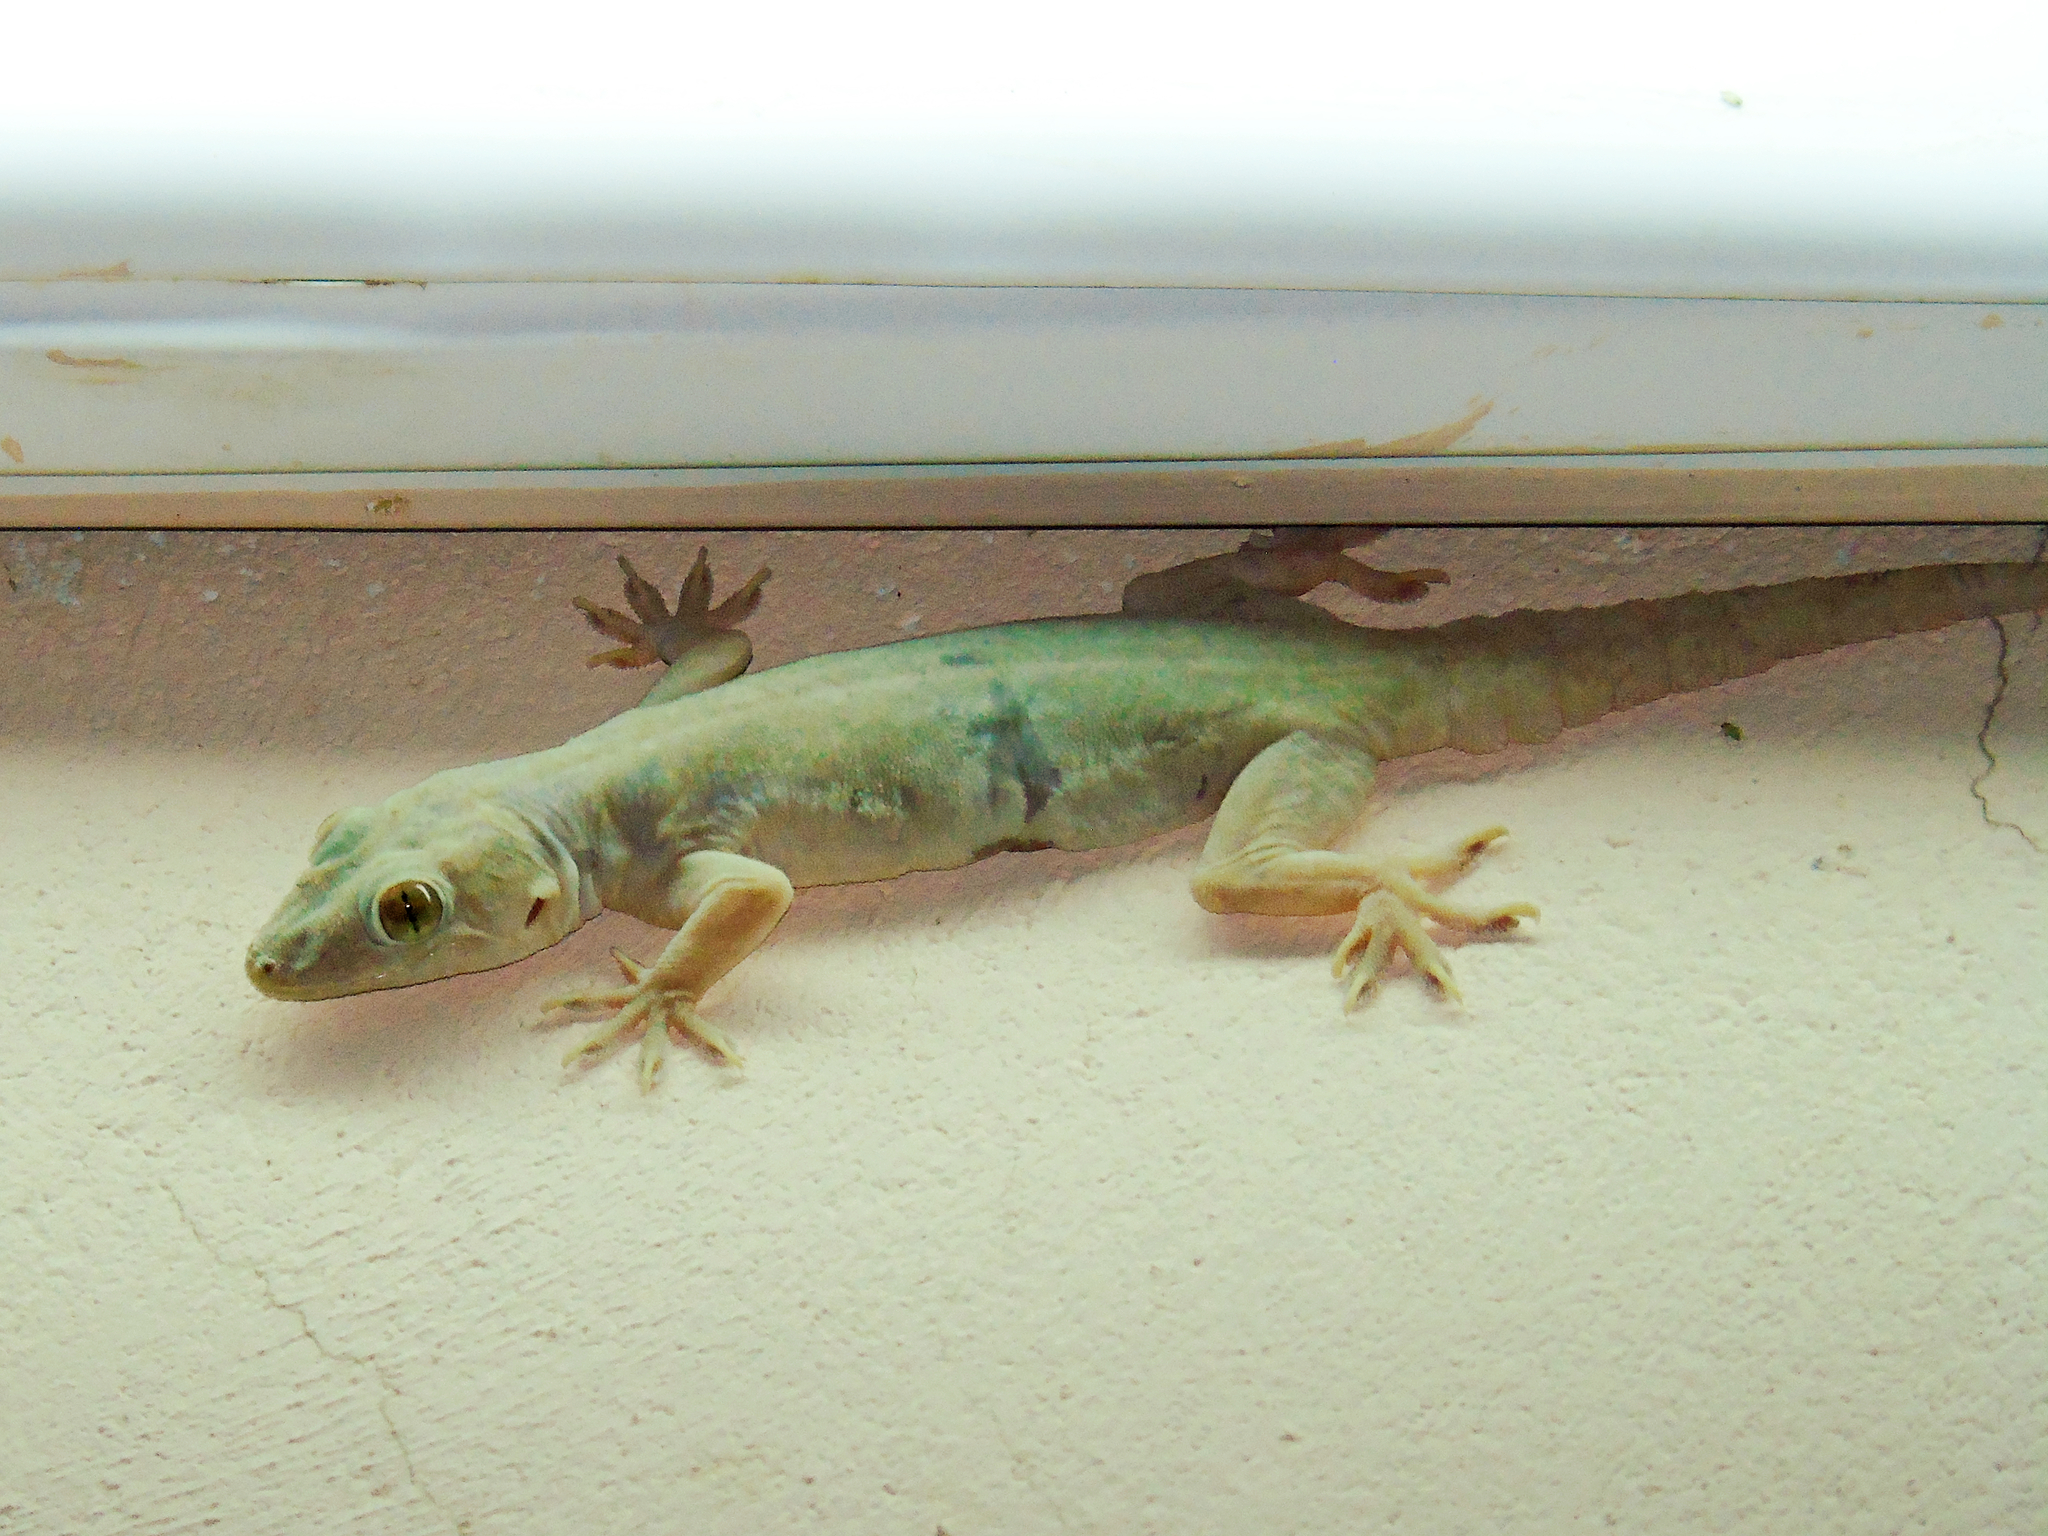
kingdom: Animalia
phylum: Chordata
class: Squamata
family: Gekkonidae
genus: Hemidactylus
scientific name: Hemidactylus flaviviridis
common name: Northern house gecko
